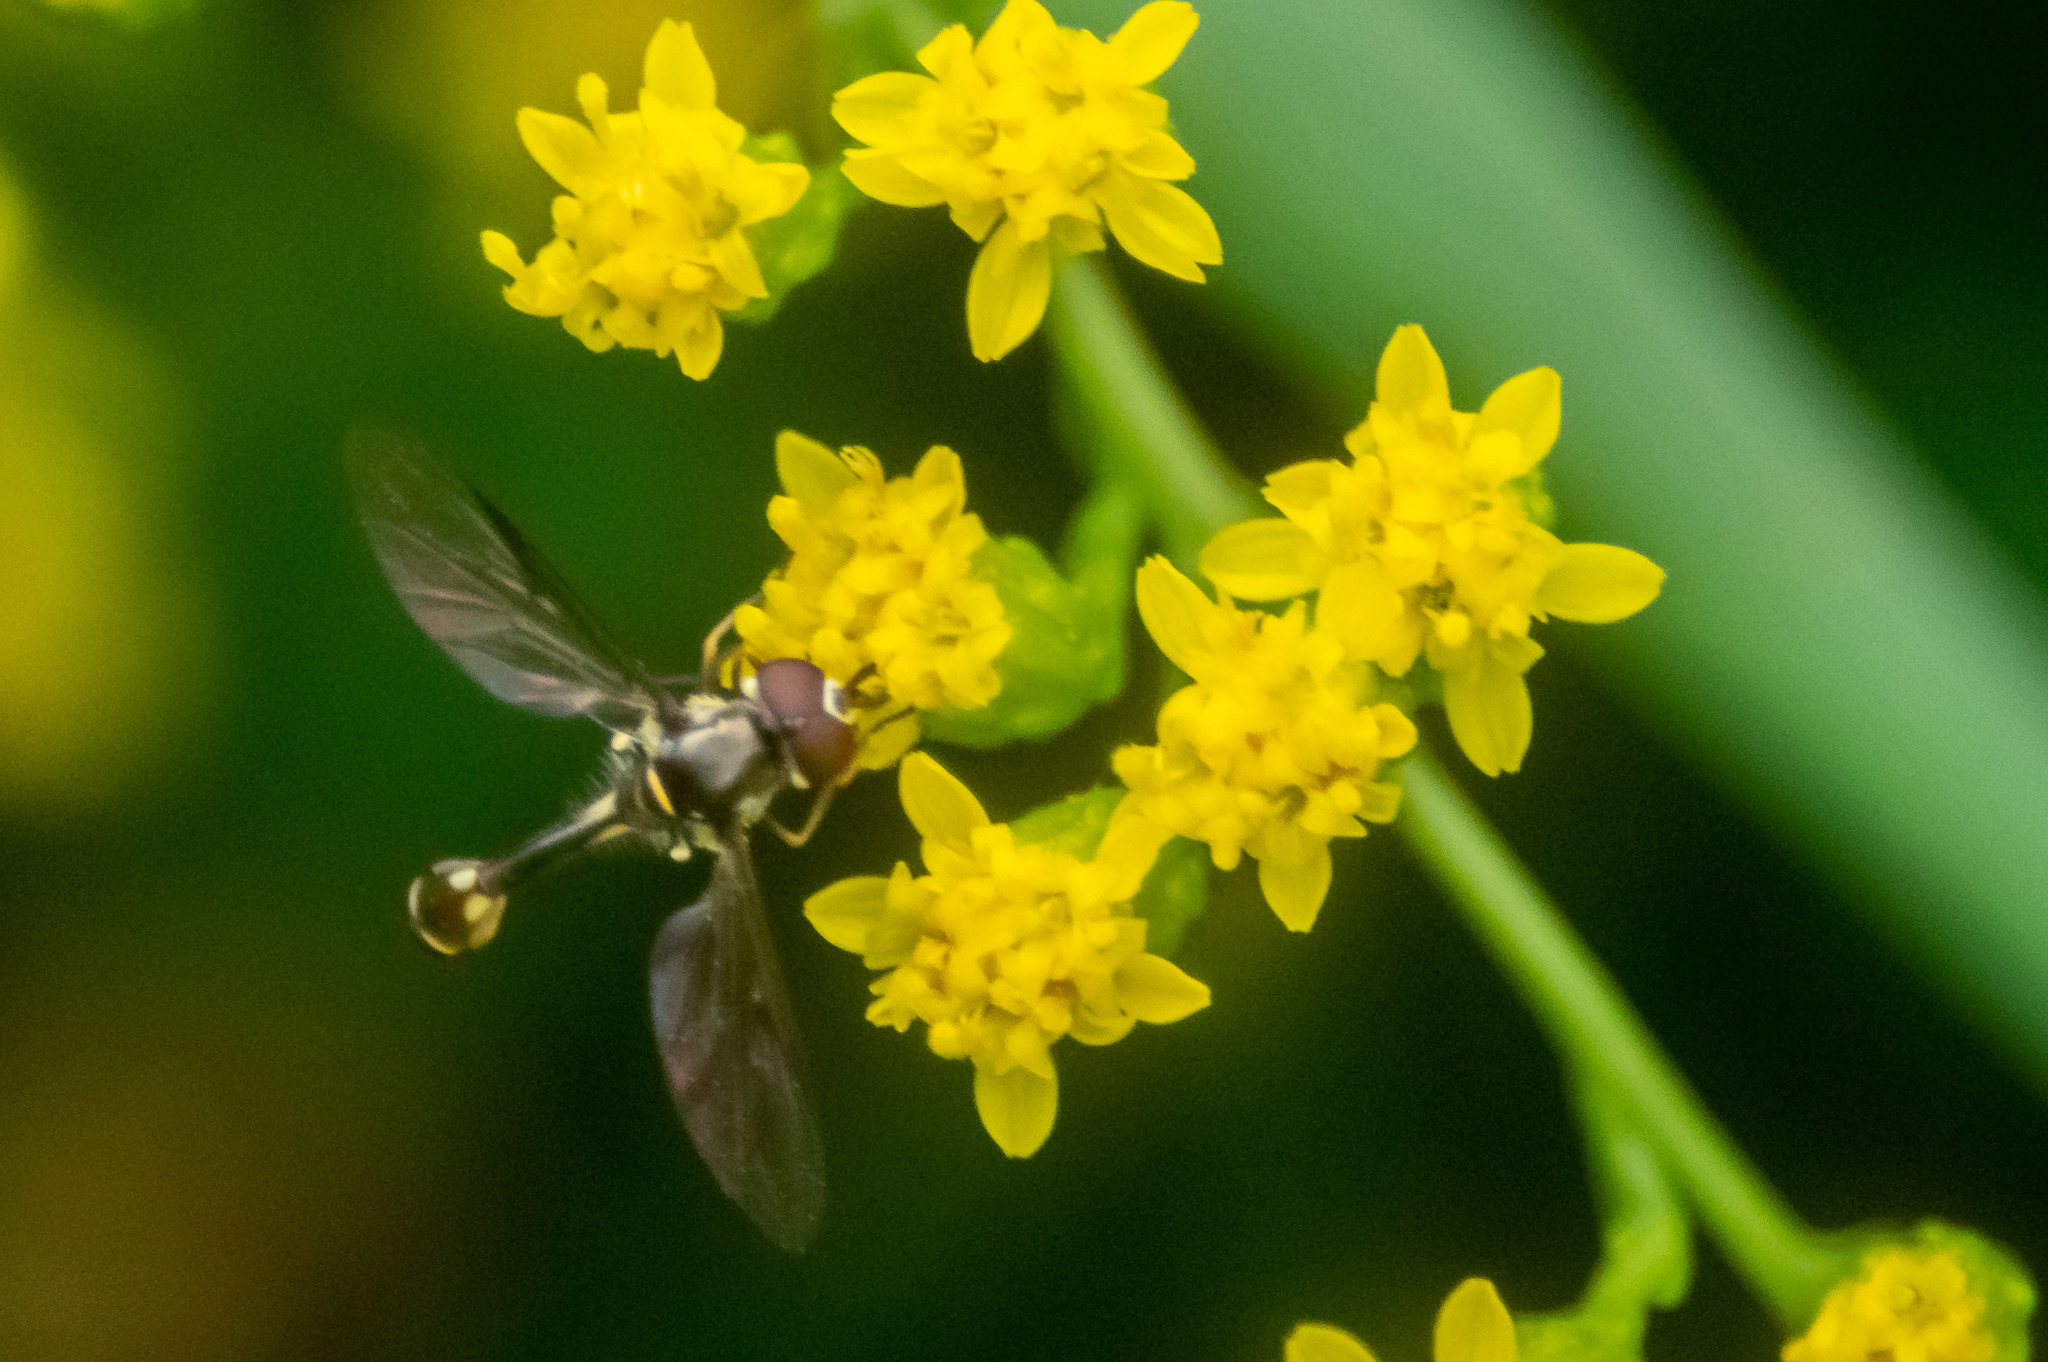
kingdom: Animalia
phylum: Arthropoda
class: Insecta
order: Diptera
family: Syrphidae
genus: Dioprosopa
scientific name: Dioprosopa clavatus
